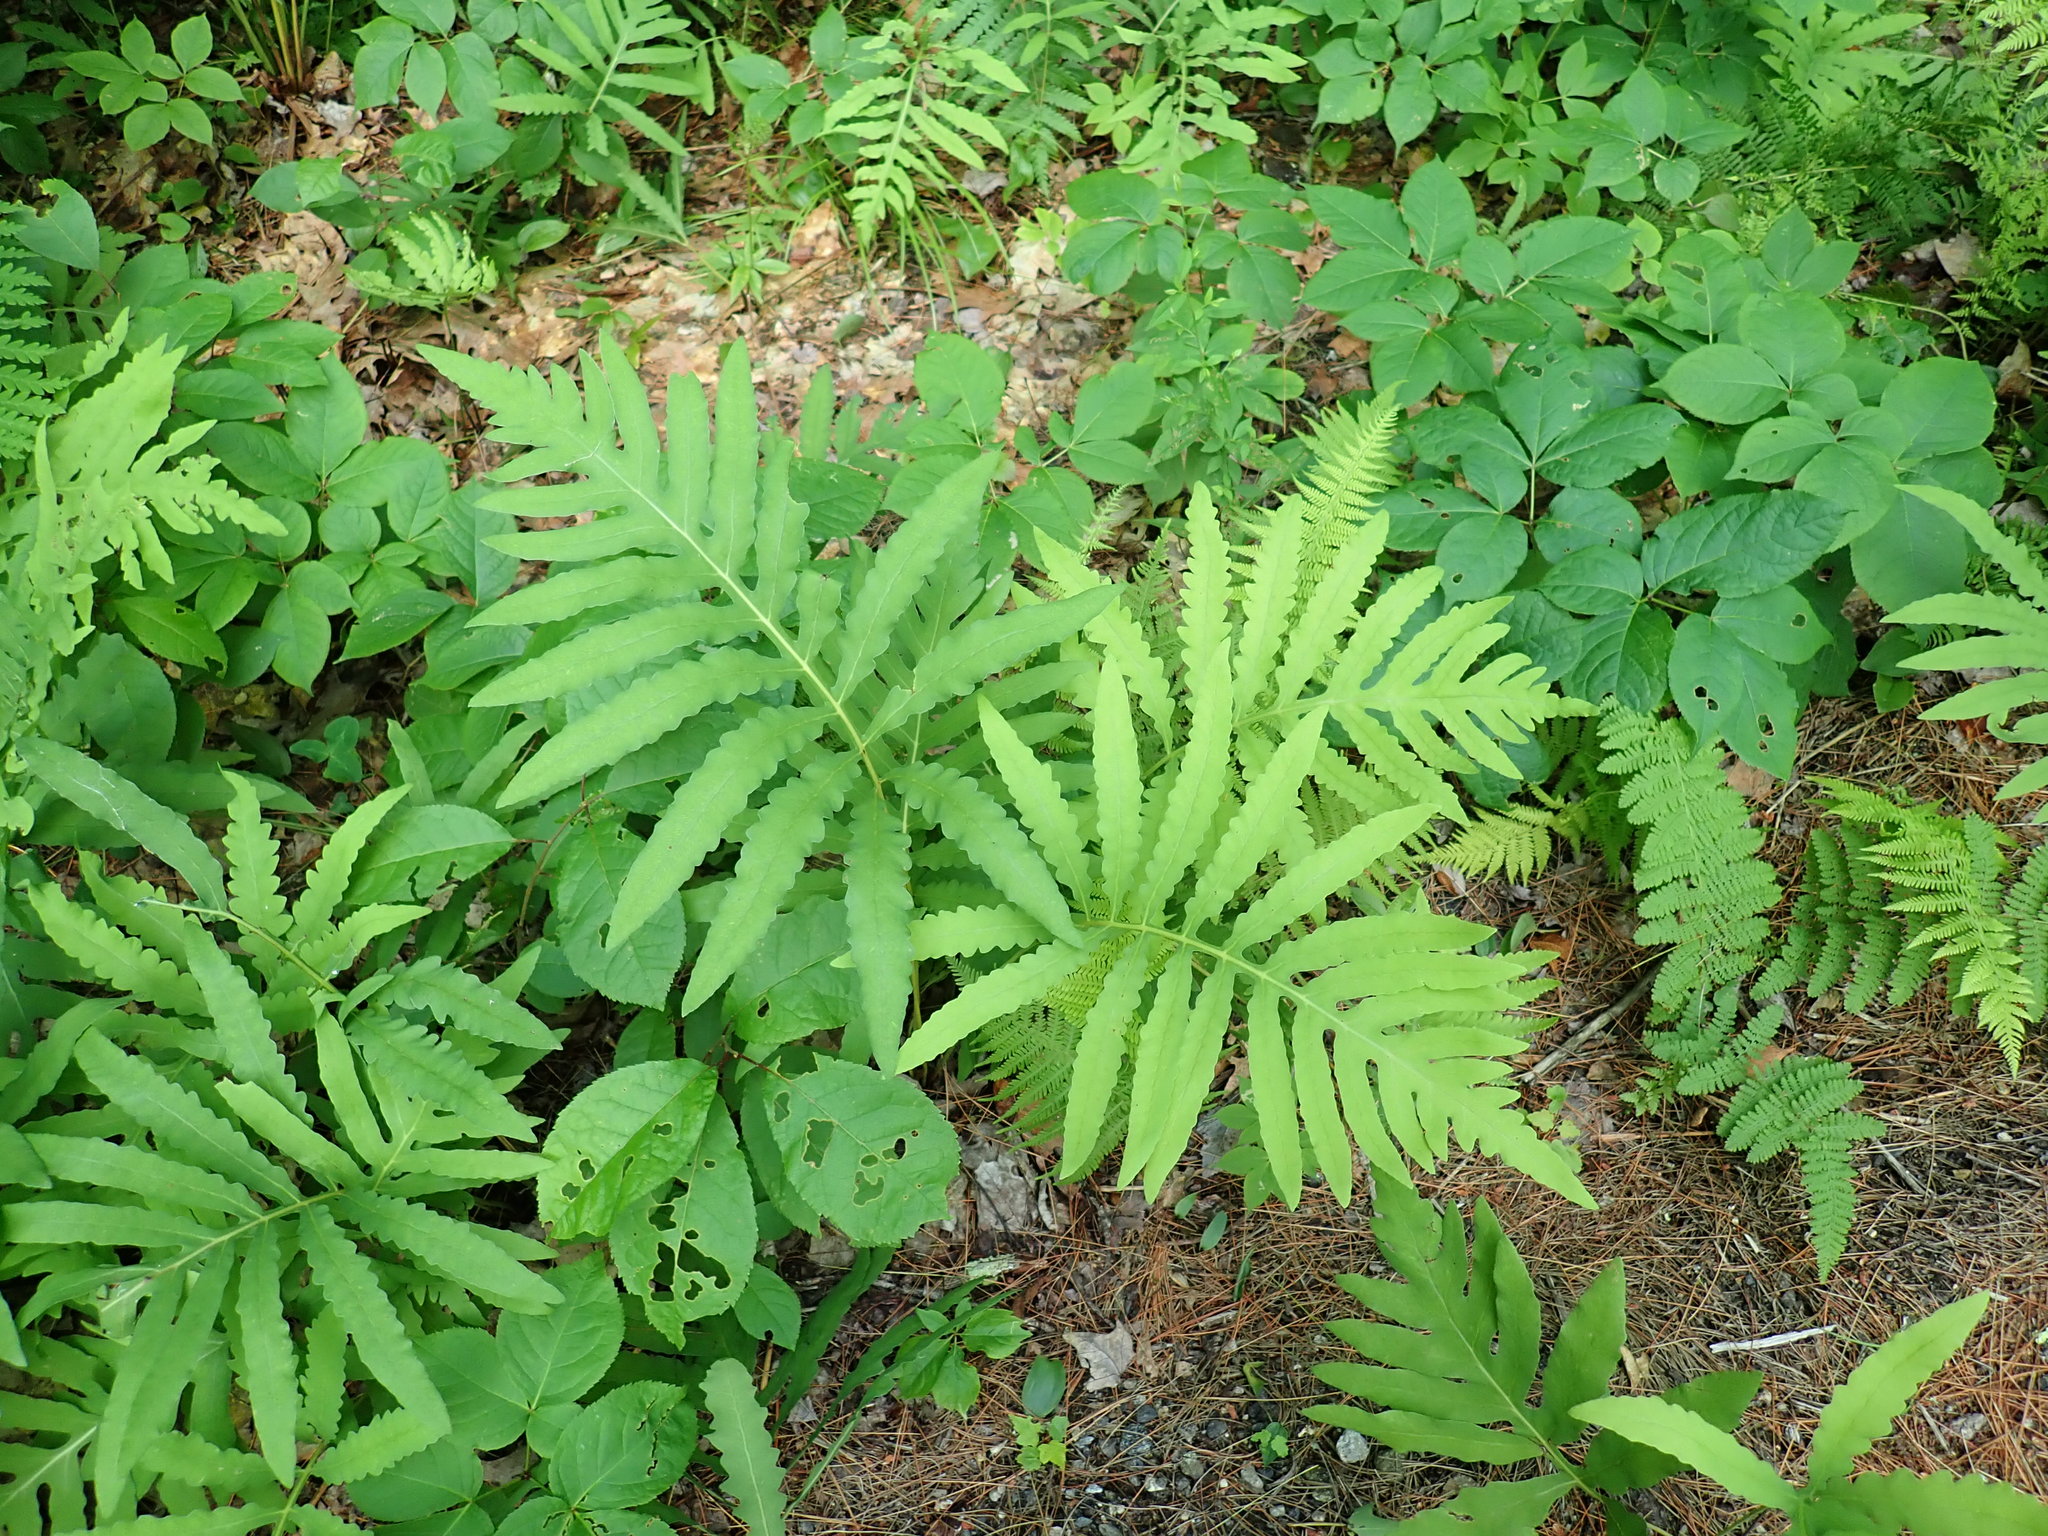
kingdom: Plantae
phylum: Tracheophyta
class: Polypodiopsida
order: Polypodiales
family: Onocleaceae
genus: Onoclea
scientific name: Onoclea sensibilis
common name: Sensitive fern
